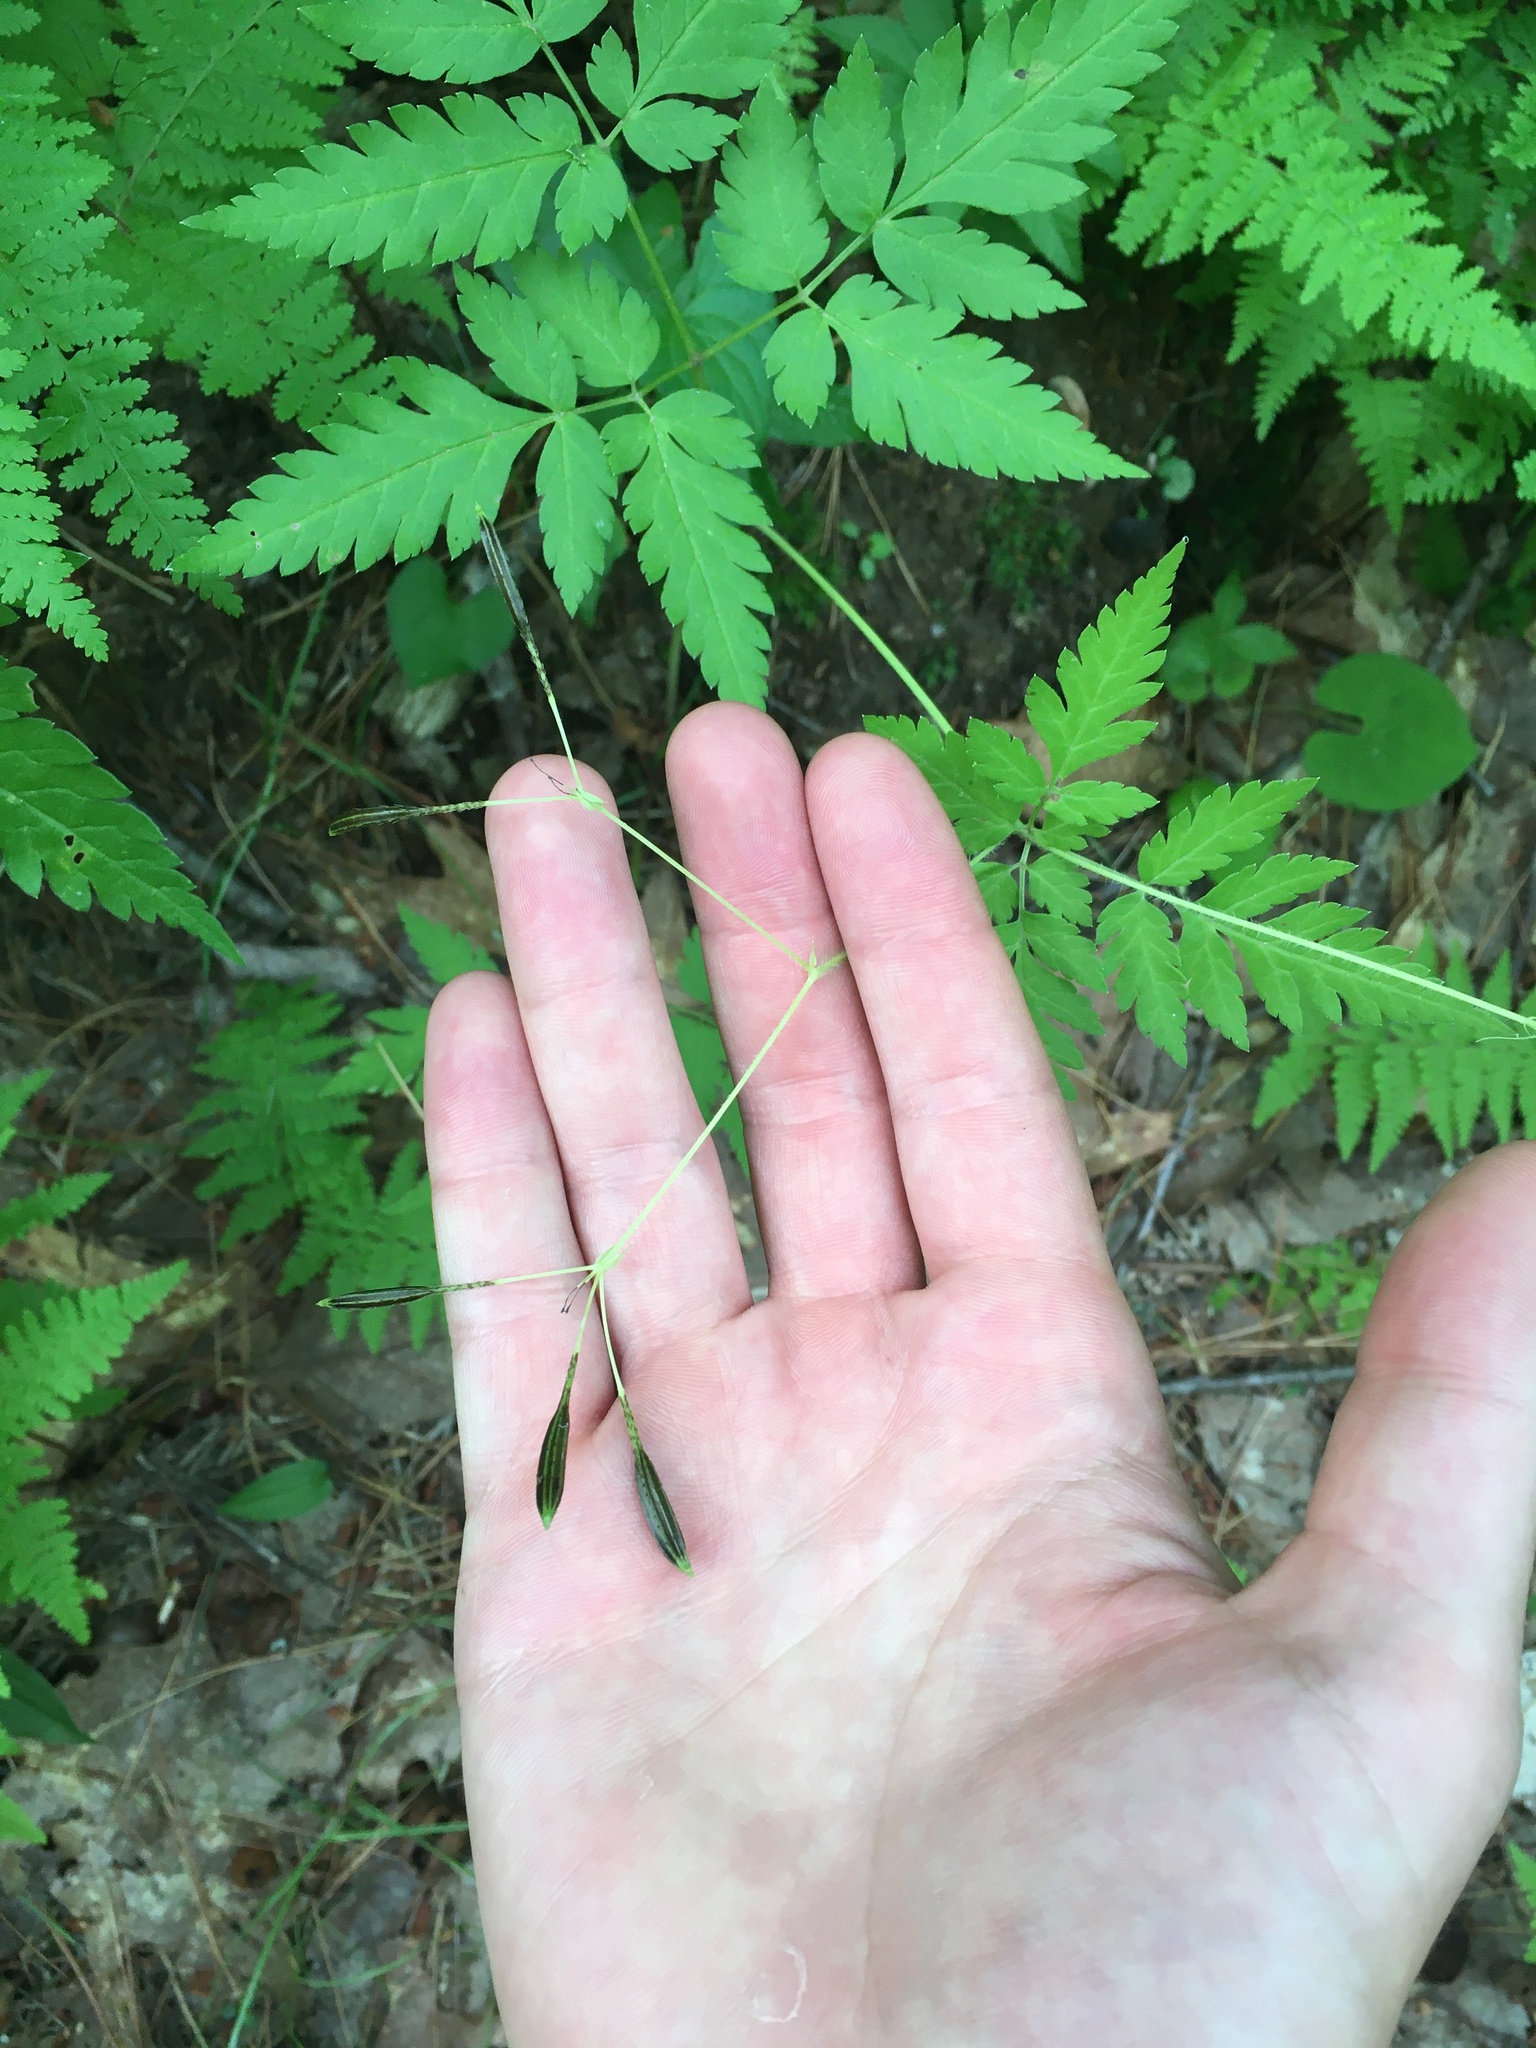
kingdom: Plantae
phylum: Tracheophyta
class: Magnoliopsida
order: Apiales
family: Apiaceae
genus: Osmorhiza
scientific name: Osmorhiza claytonii
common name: Hairy sweet cicely
